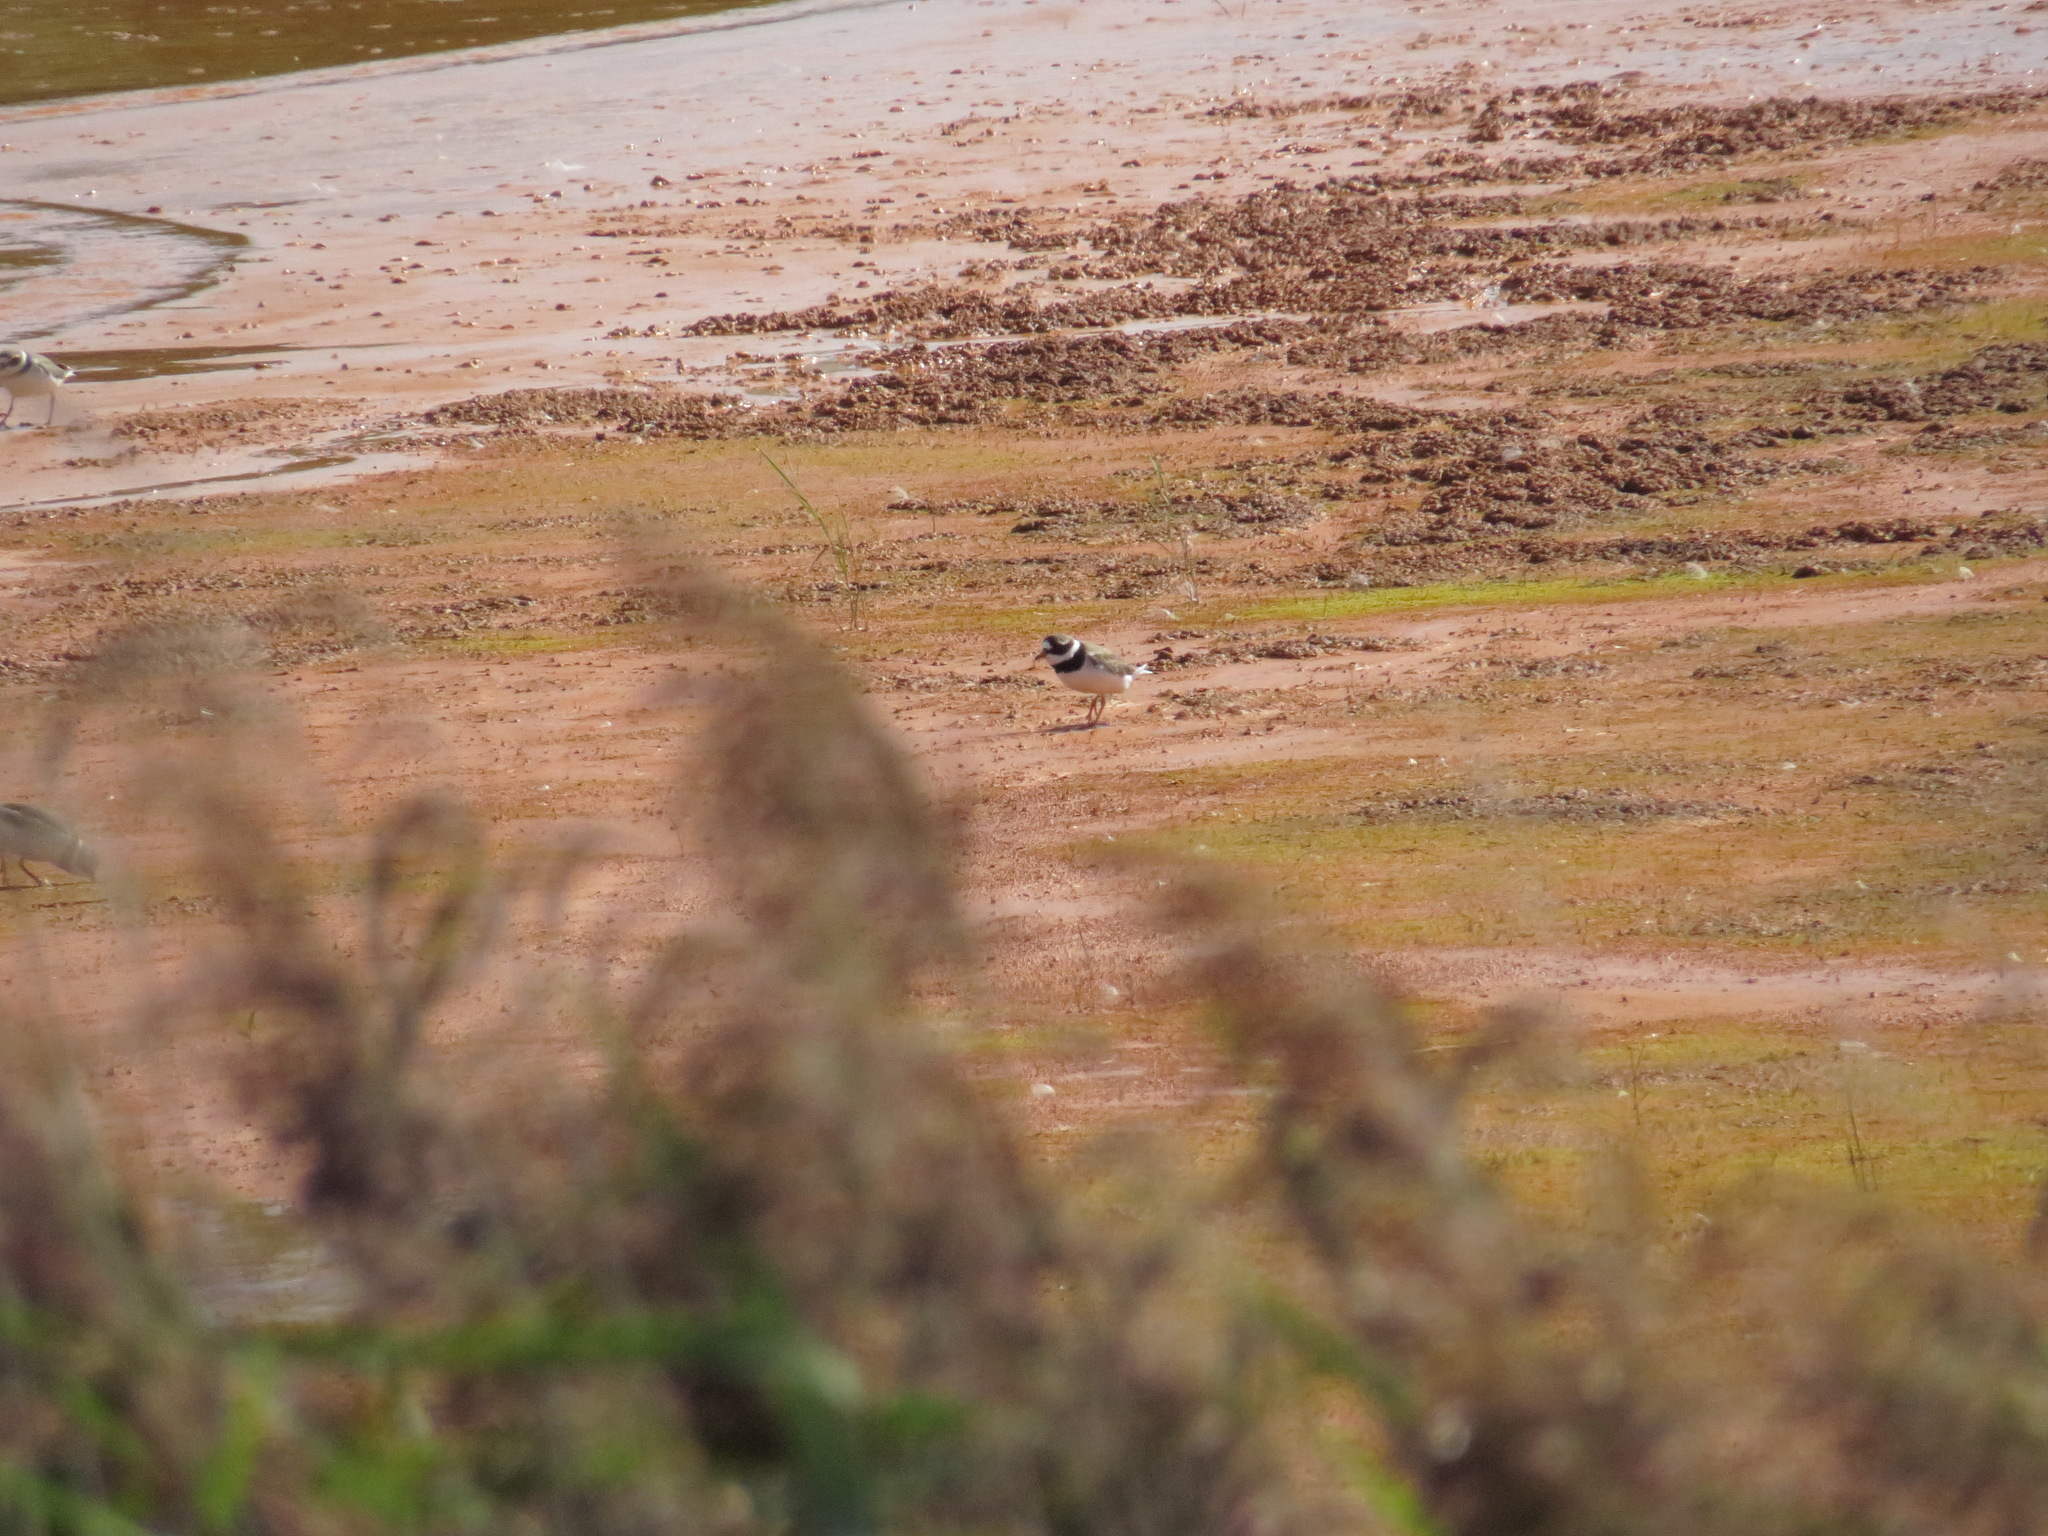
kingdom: Animalia
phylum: Chordata
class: Aves
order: Charadriiformes
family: Charadriidae
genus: Charadrius
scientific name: Charadrius hiaticula
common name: Common ringed plover
